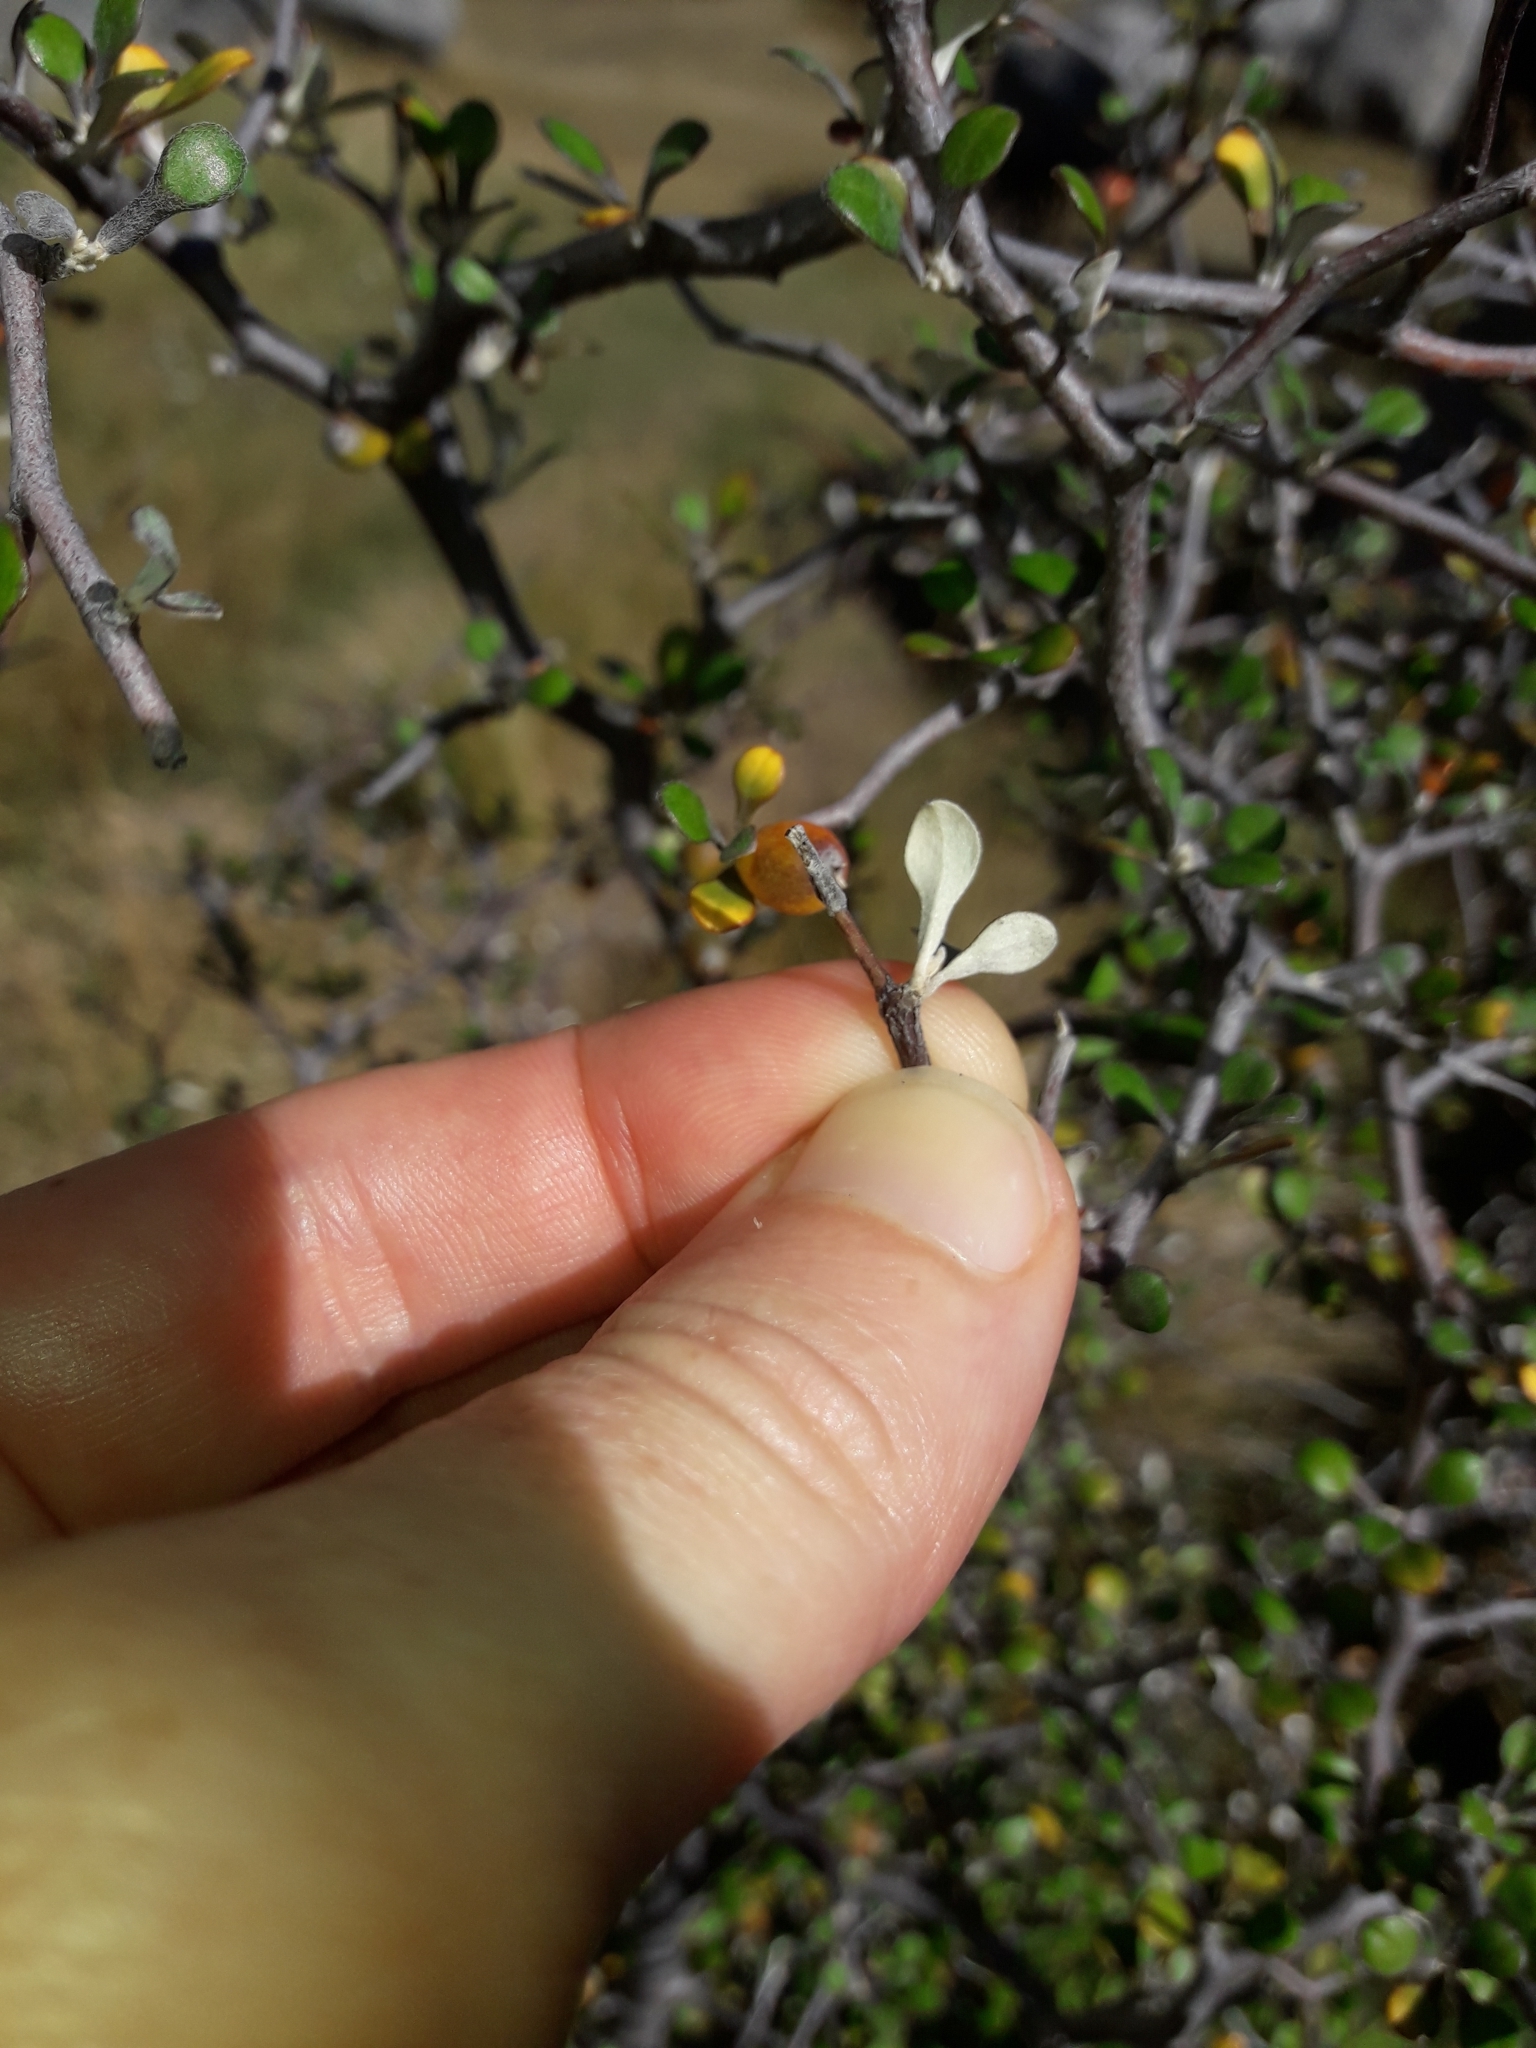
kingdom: Plantae
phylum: Tracheophyta
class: Magnoliopsida
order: Asterales
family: Argophyllaceae
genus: Corokia
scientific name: Corokia cotoneaster
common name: Wire nettingbush
